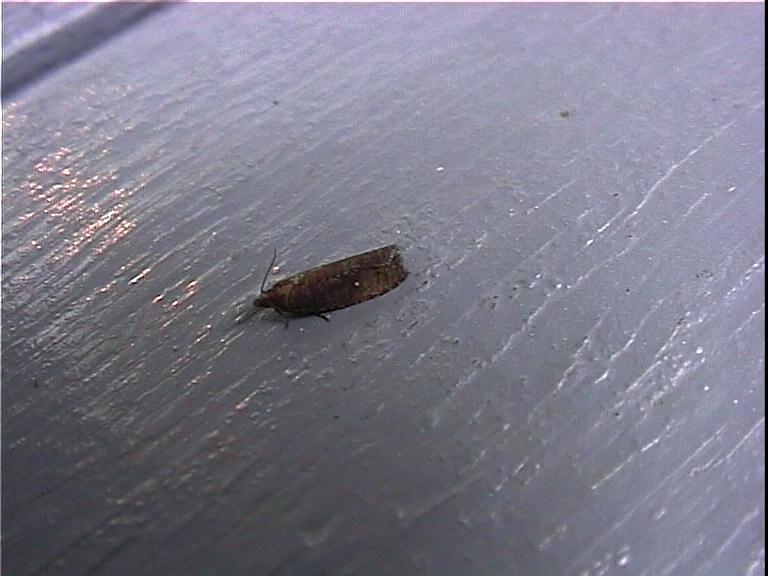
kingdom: Animalia
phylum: Arthropoda
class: Insecta
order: Lepidoptera
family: Tortricidae
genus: Cryptaspasma
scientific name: Cryptaspasma querula
